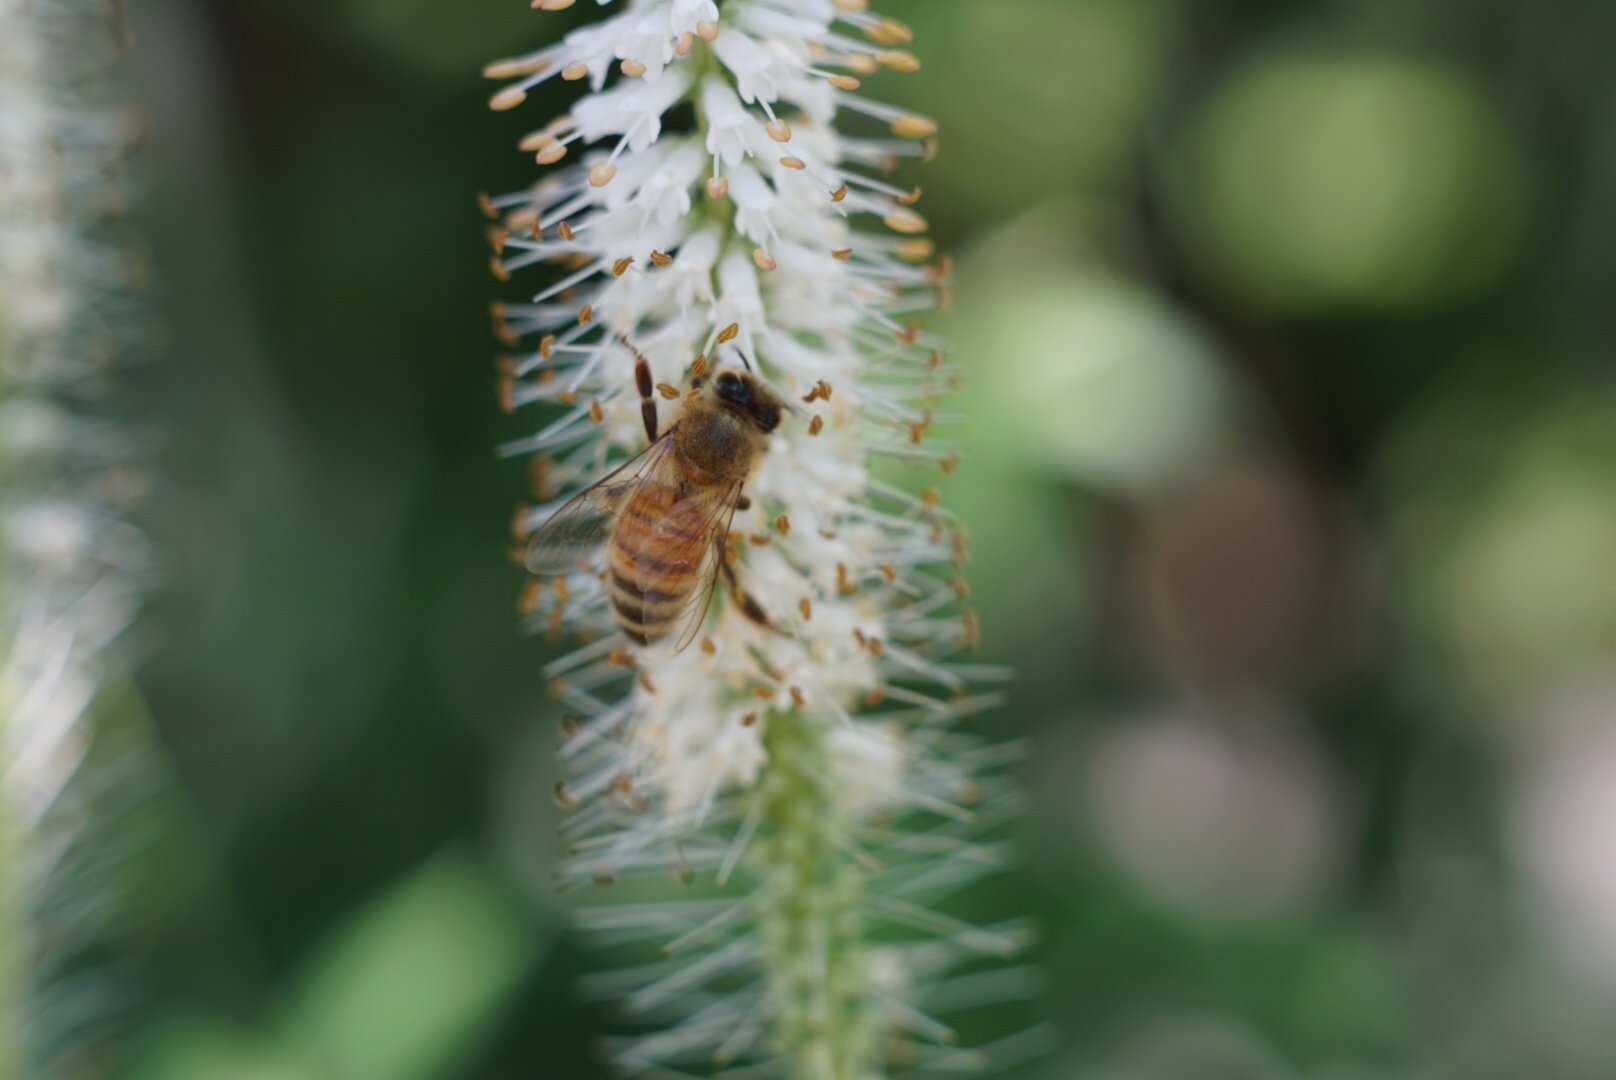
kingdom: Animalia
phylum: Arthropoda
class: Insecta
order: Hymenoptera
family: Apidae
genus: Apis
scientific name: Apis mellifera
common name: Honey bee
